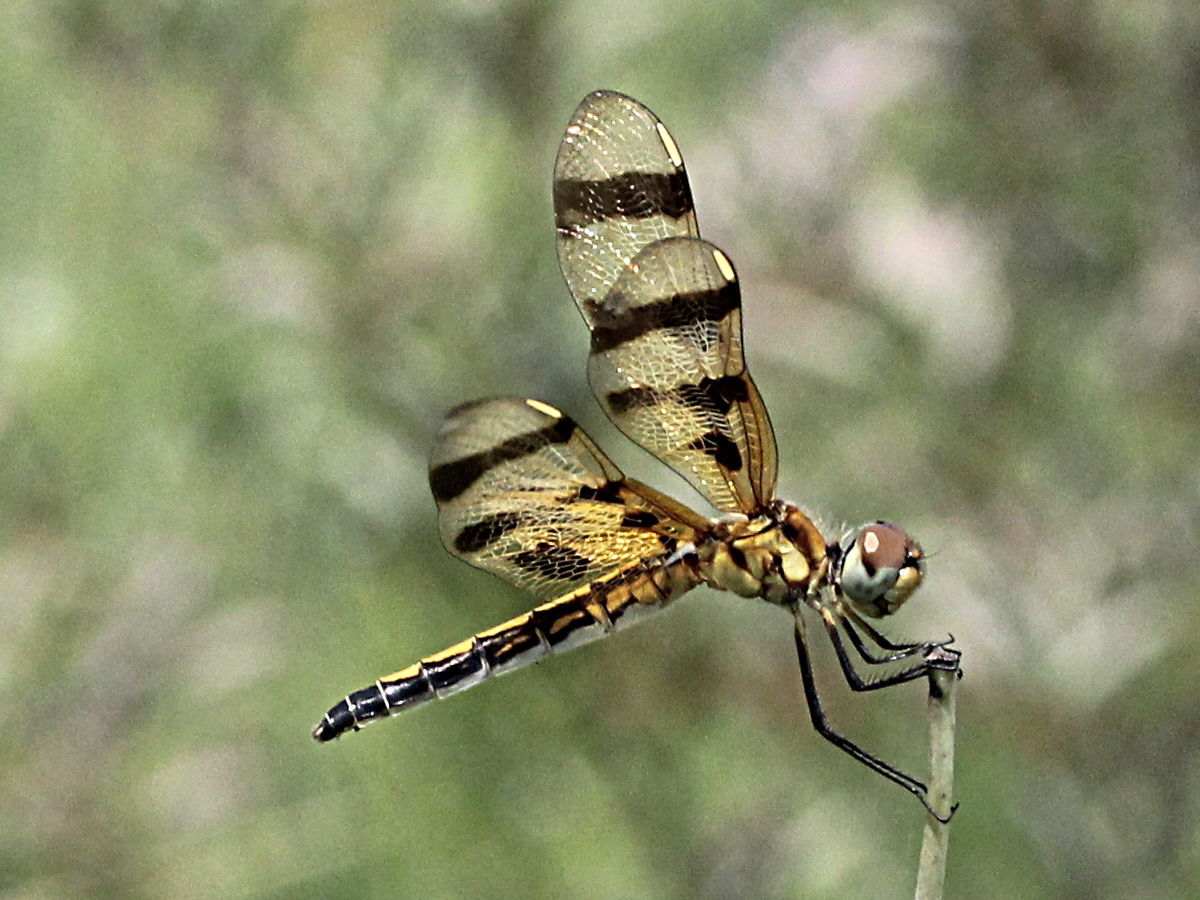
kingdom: Animalia
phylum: Arthropoda
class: Insecta
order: Odonata
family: Libellulidae
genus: Celithemis
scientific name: Celithemis eponina
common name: Halloween pennant
